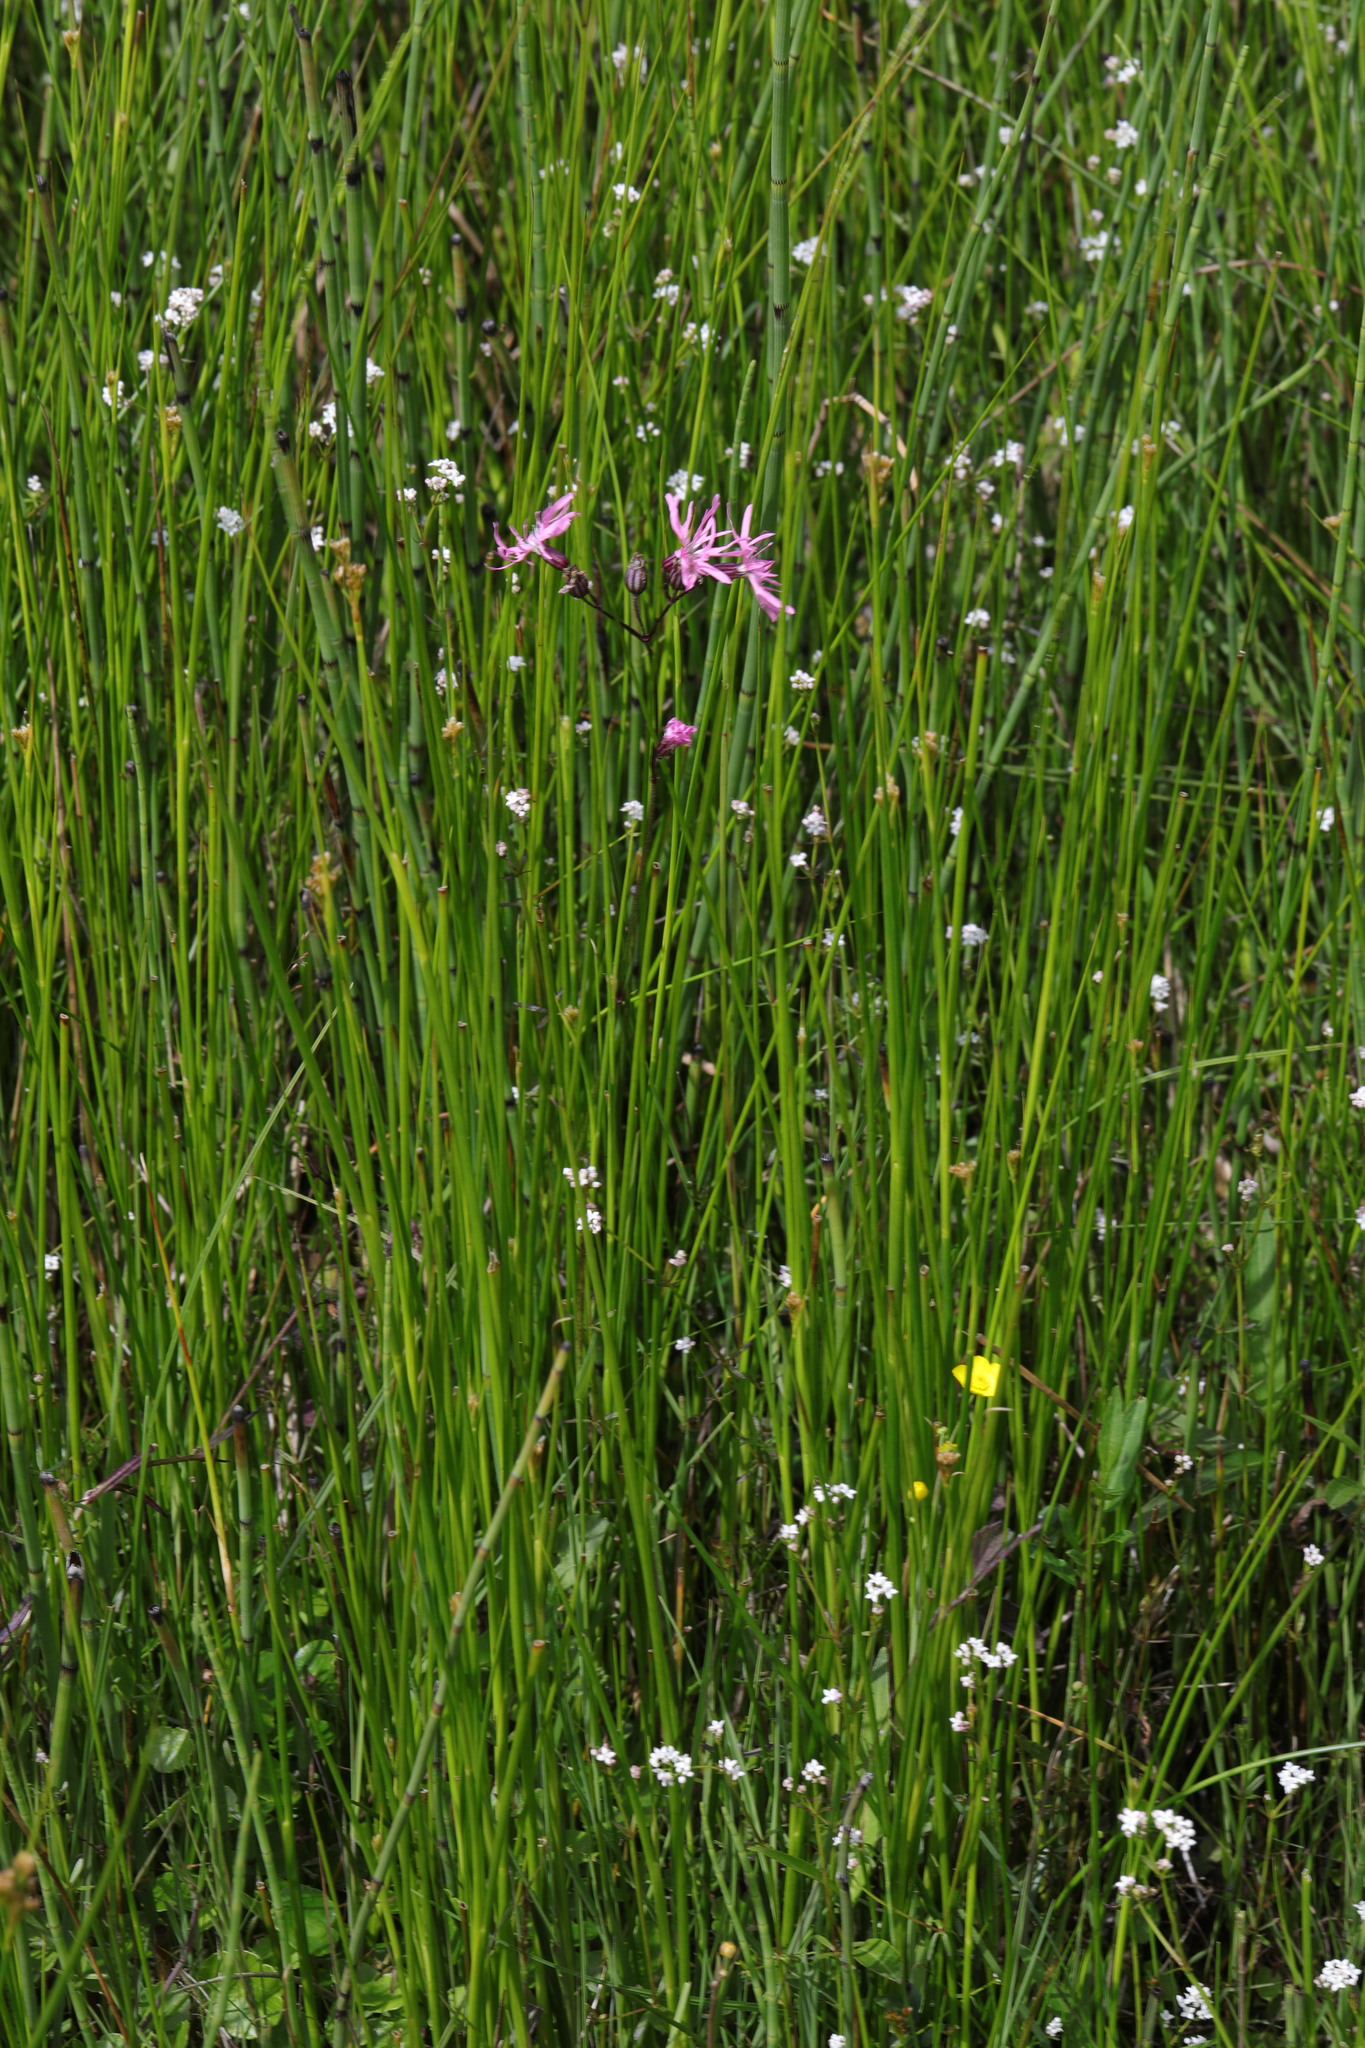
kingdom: Plantae
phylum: Tracheophyta
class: Magnoliopsida
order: Caryophyllales
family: Caryophyllaceae
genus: Silene
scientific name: Silene flos-cuculi
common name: Ragged-robin
